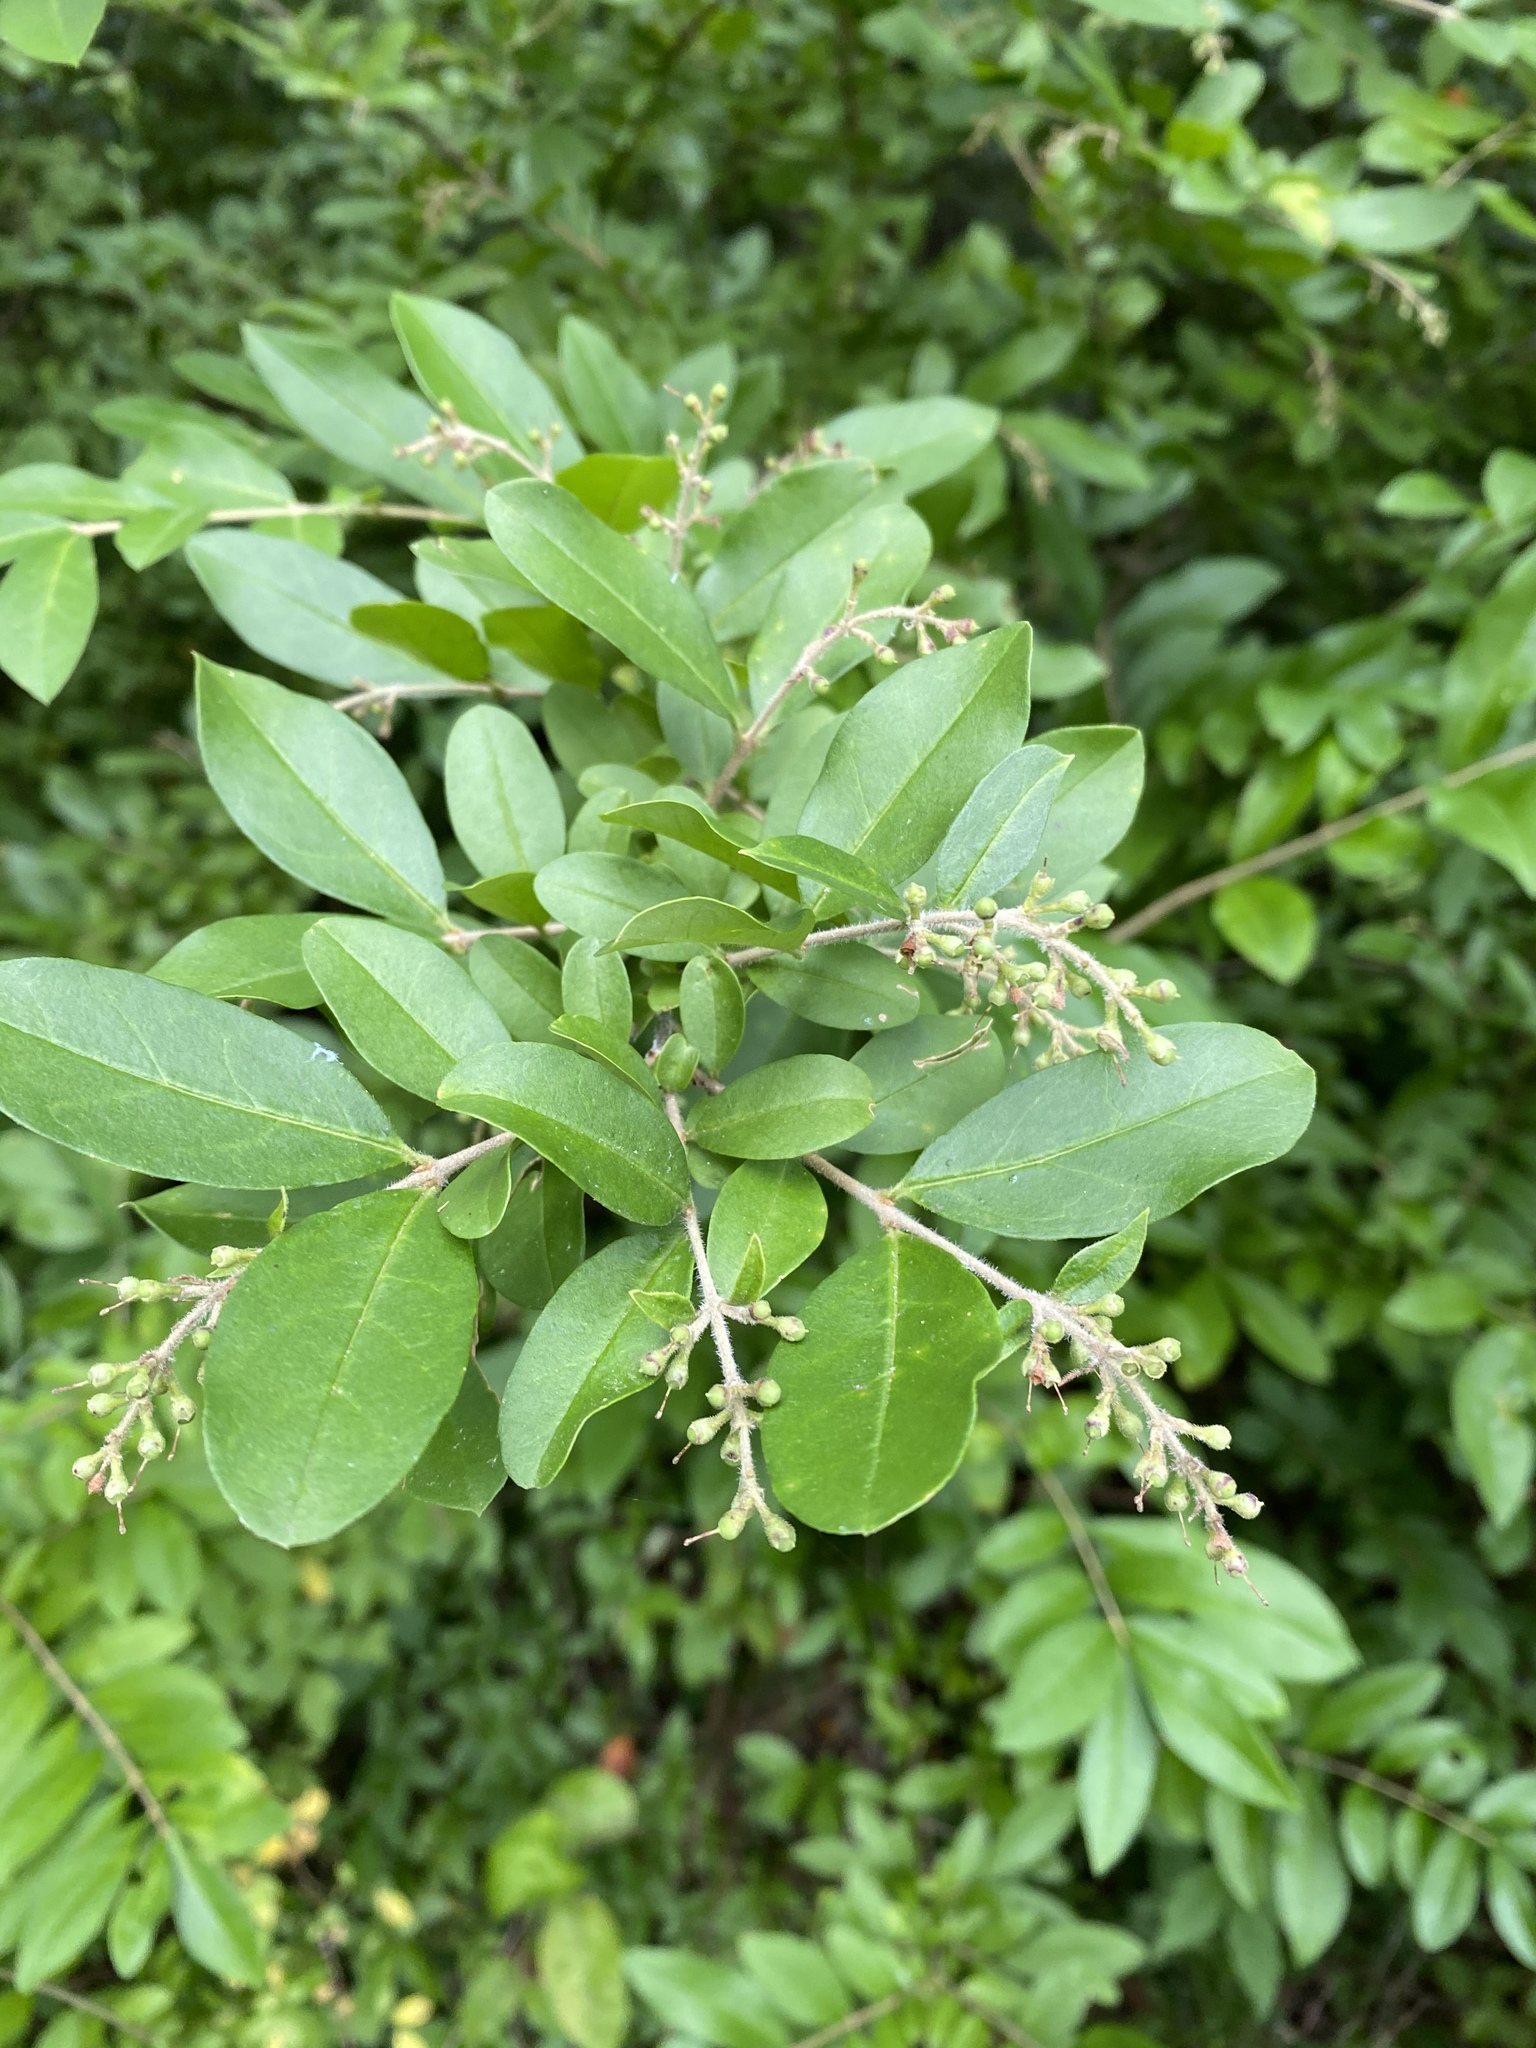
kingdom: Plantae
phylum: Tracheophyta
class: Magnoliopsida
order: Lamiales
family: Oleaceae
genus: Ligustrum
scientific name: Ligustrum obtusifolium
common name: Border privet
